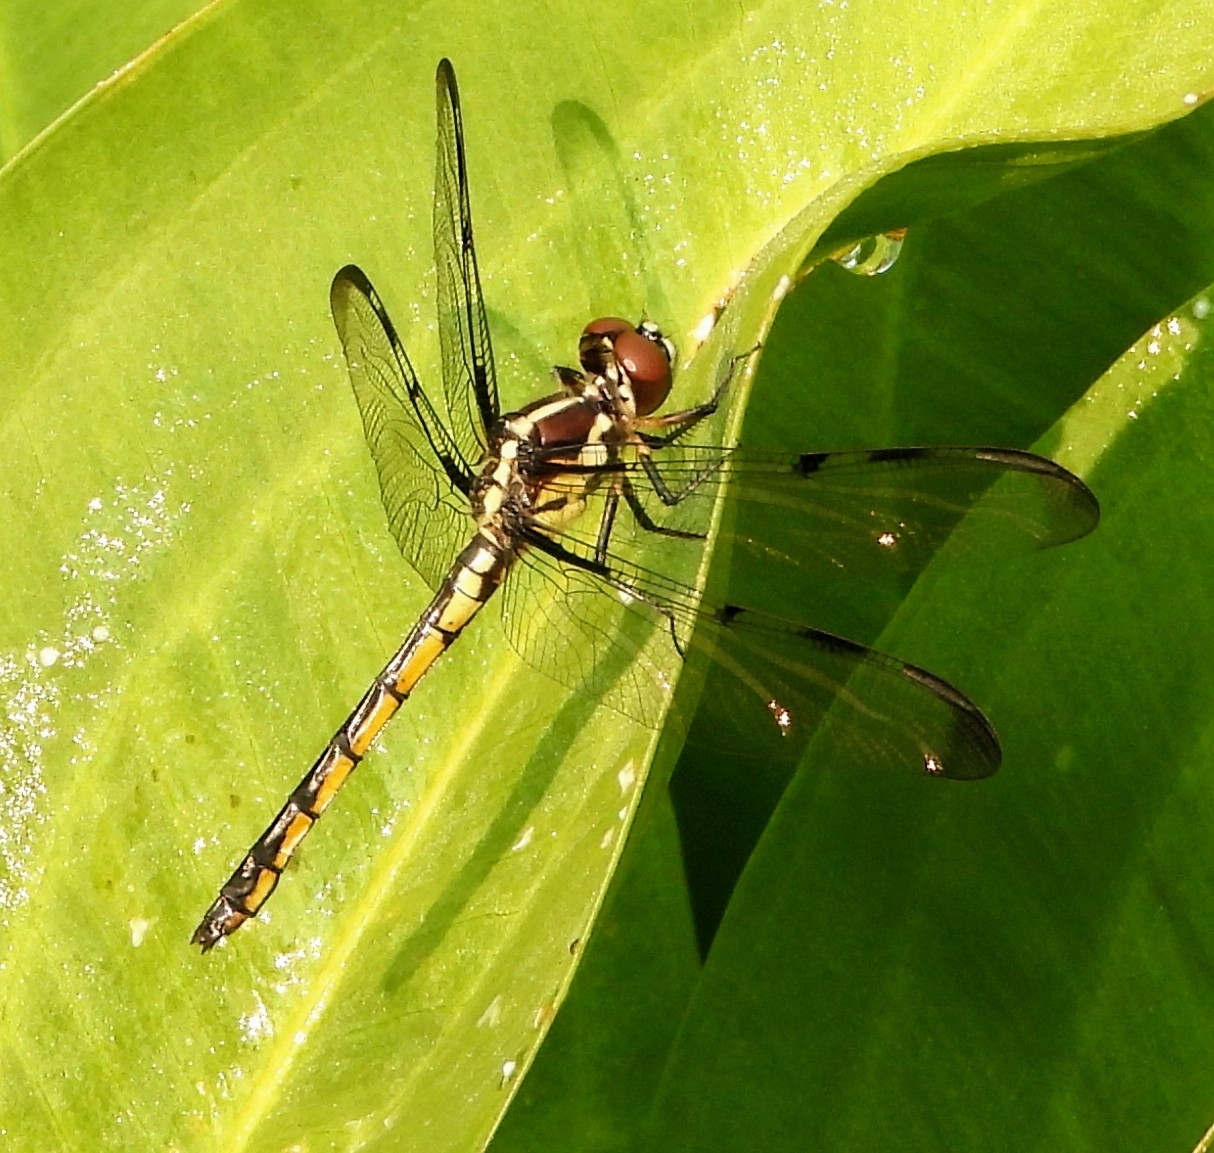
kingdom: Animalia
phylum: Arthropoda
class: Insecta
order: Odonata
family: Libellulidae
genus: Libellula
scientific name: Libellula axilena
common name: Bar-winged skimmer
